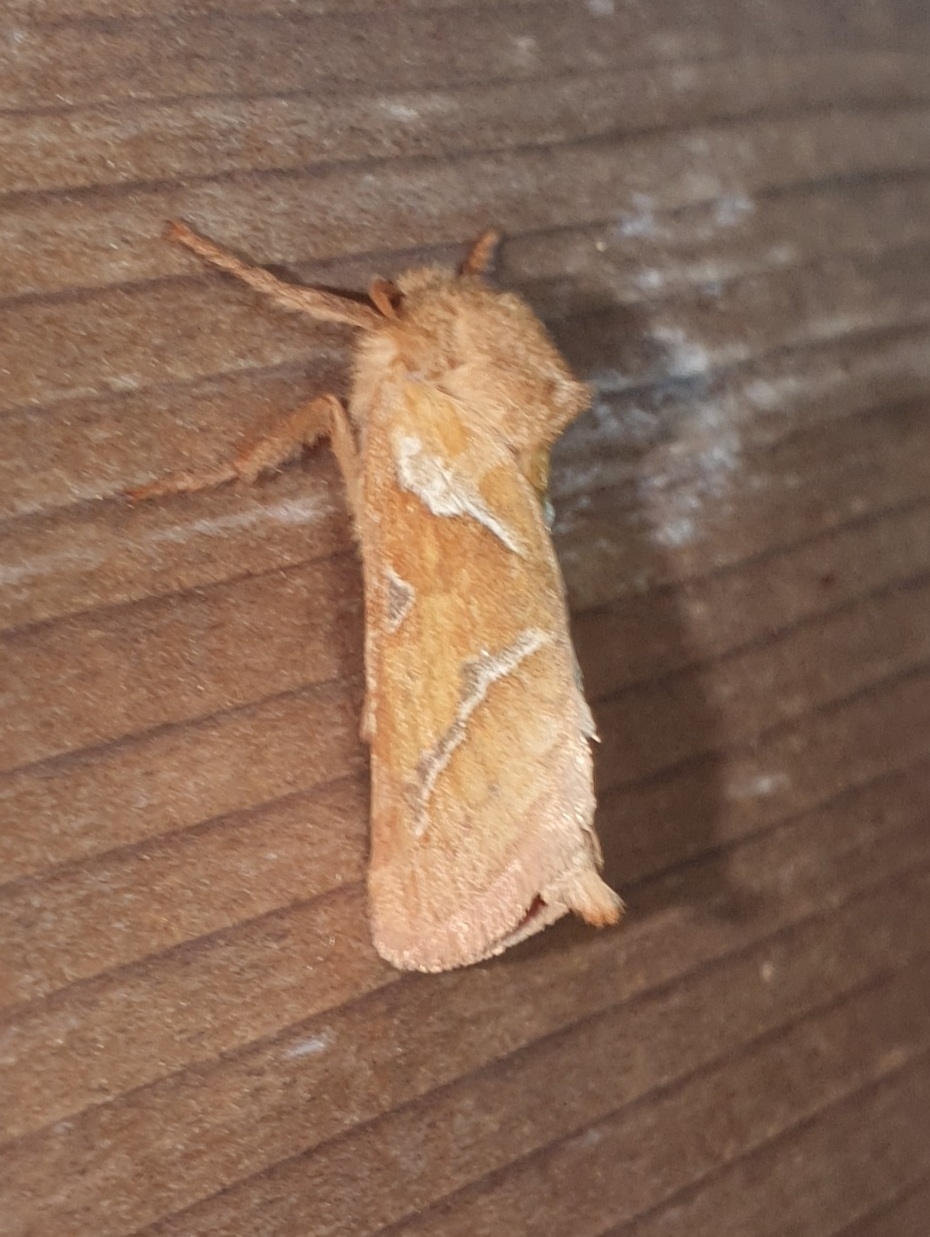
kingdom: Animalia
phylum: Arthropoda
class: Insecta
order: Lepidoptera
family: Hepialidae
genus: Triodia
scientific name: Triodia sylvina
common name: Orange swift
